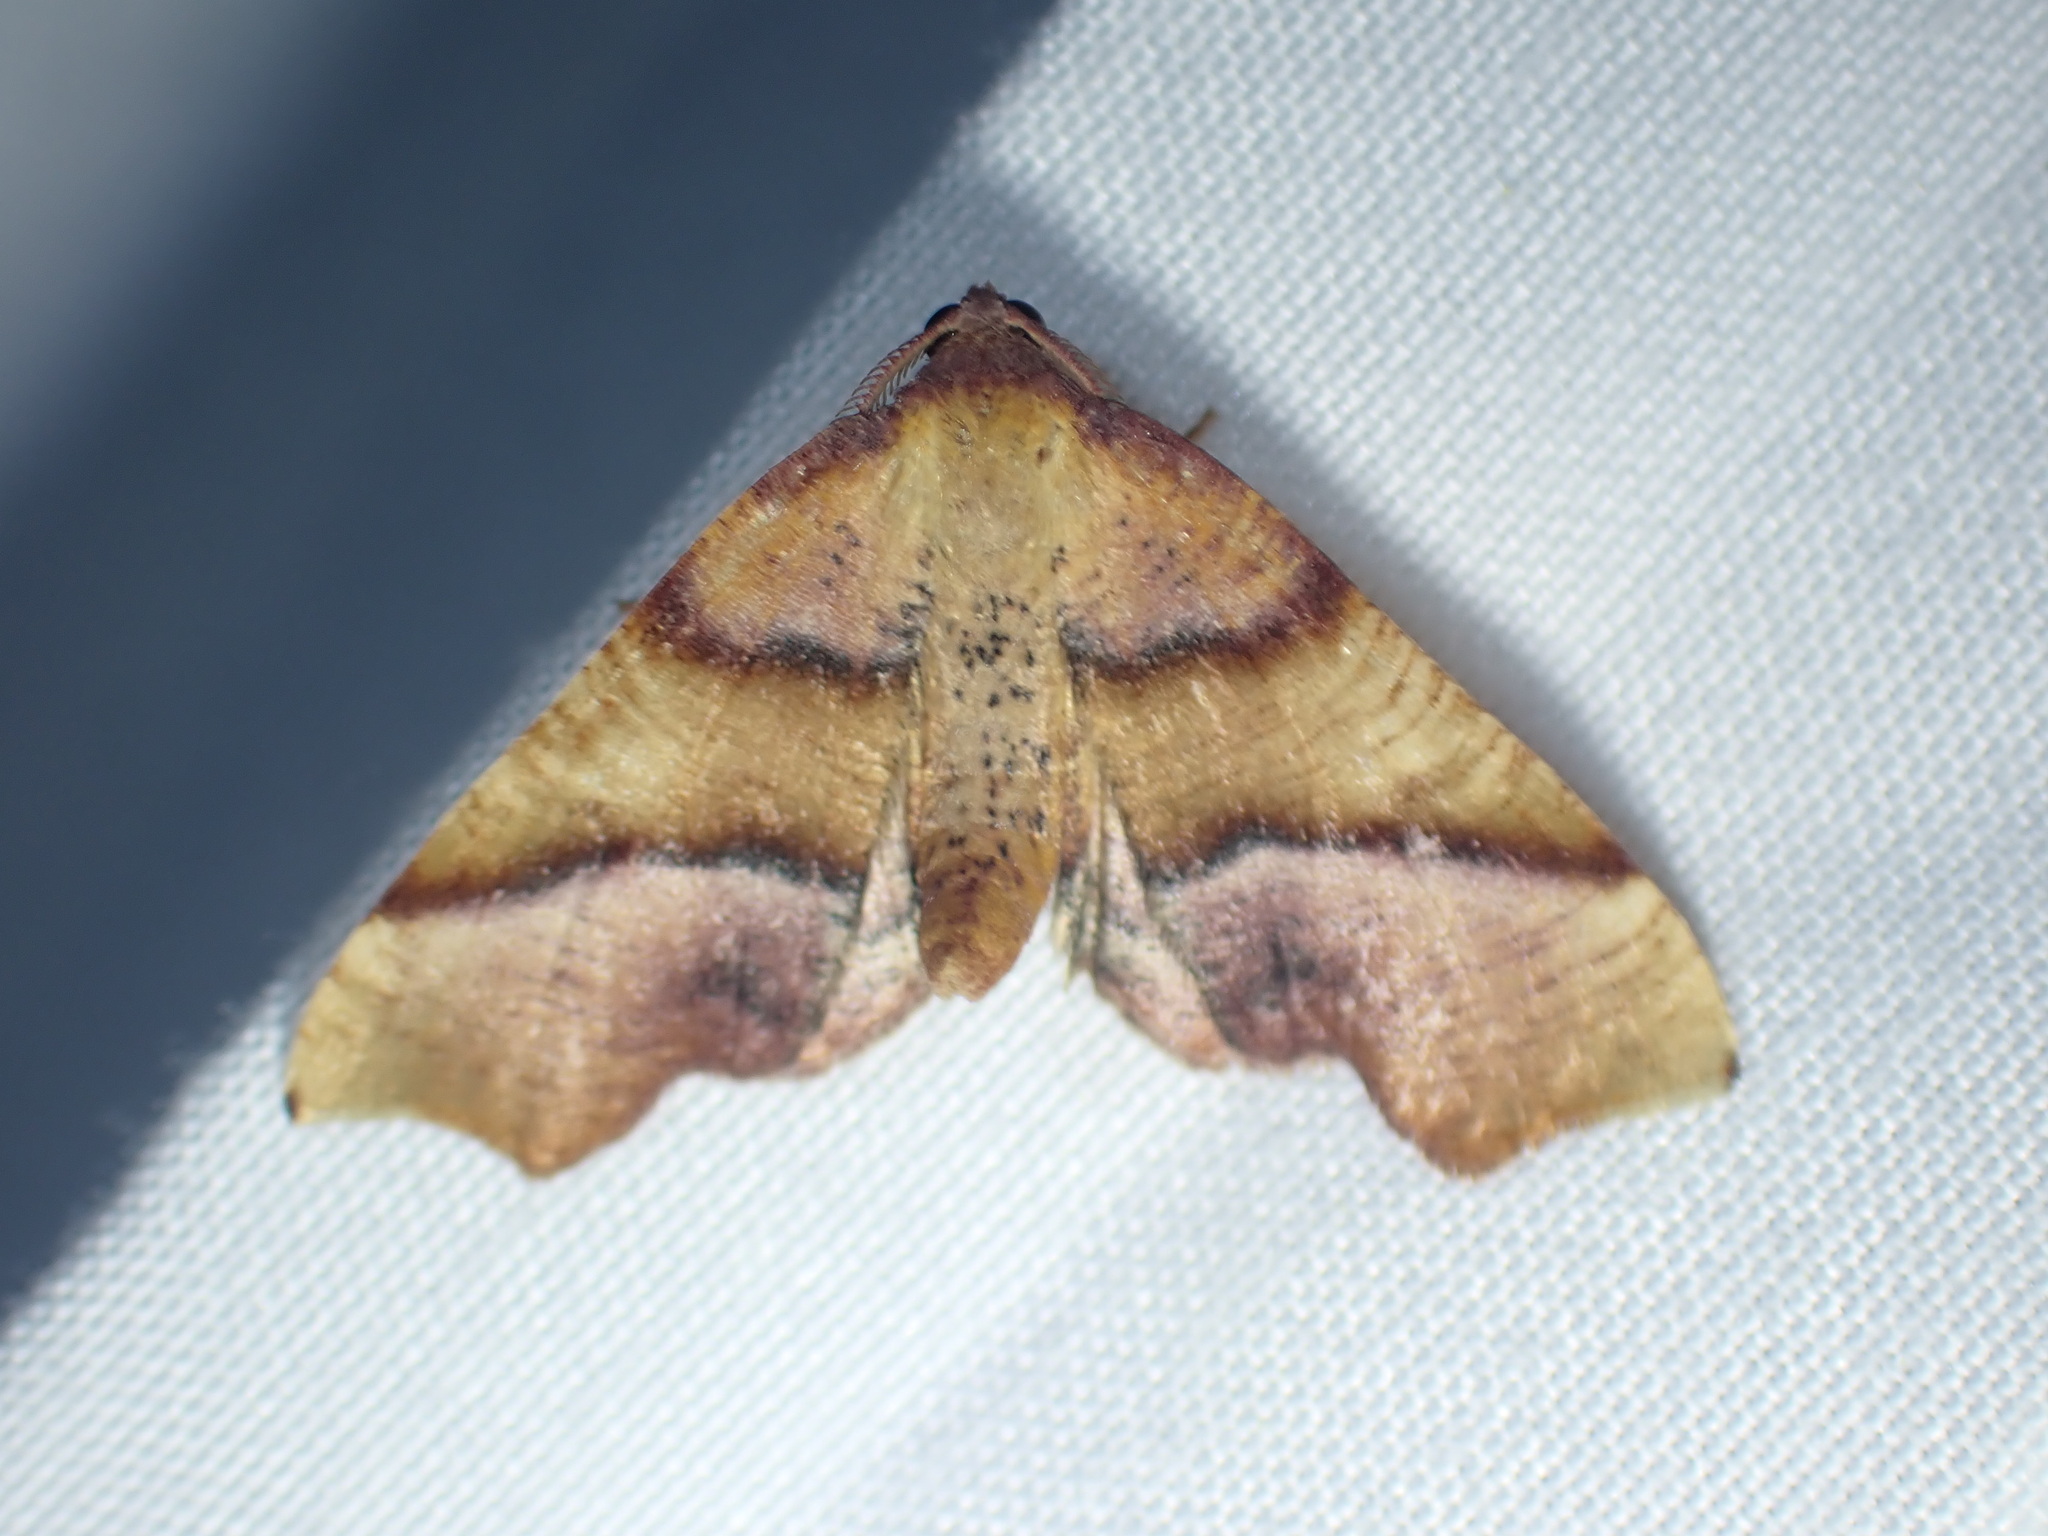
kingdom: Animalia
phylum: Arthropoda
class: Insecta
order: Lepidoptera
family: Geometridae
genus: Plagodis
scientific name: Plagodis phlogosaria
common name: Straight-lined plagodis
